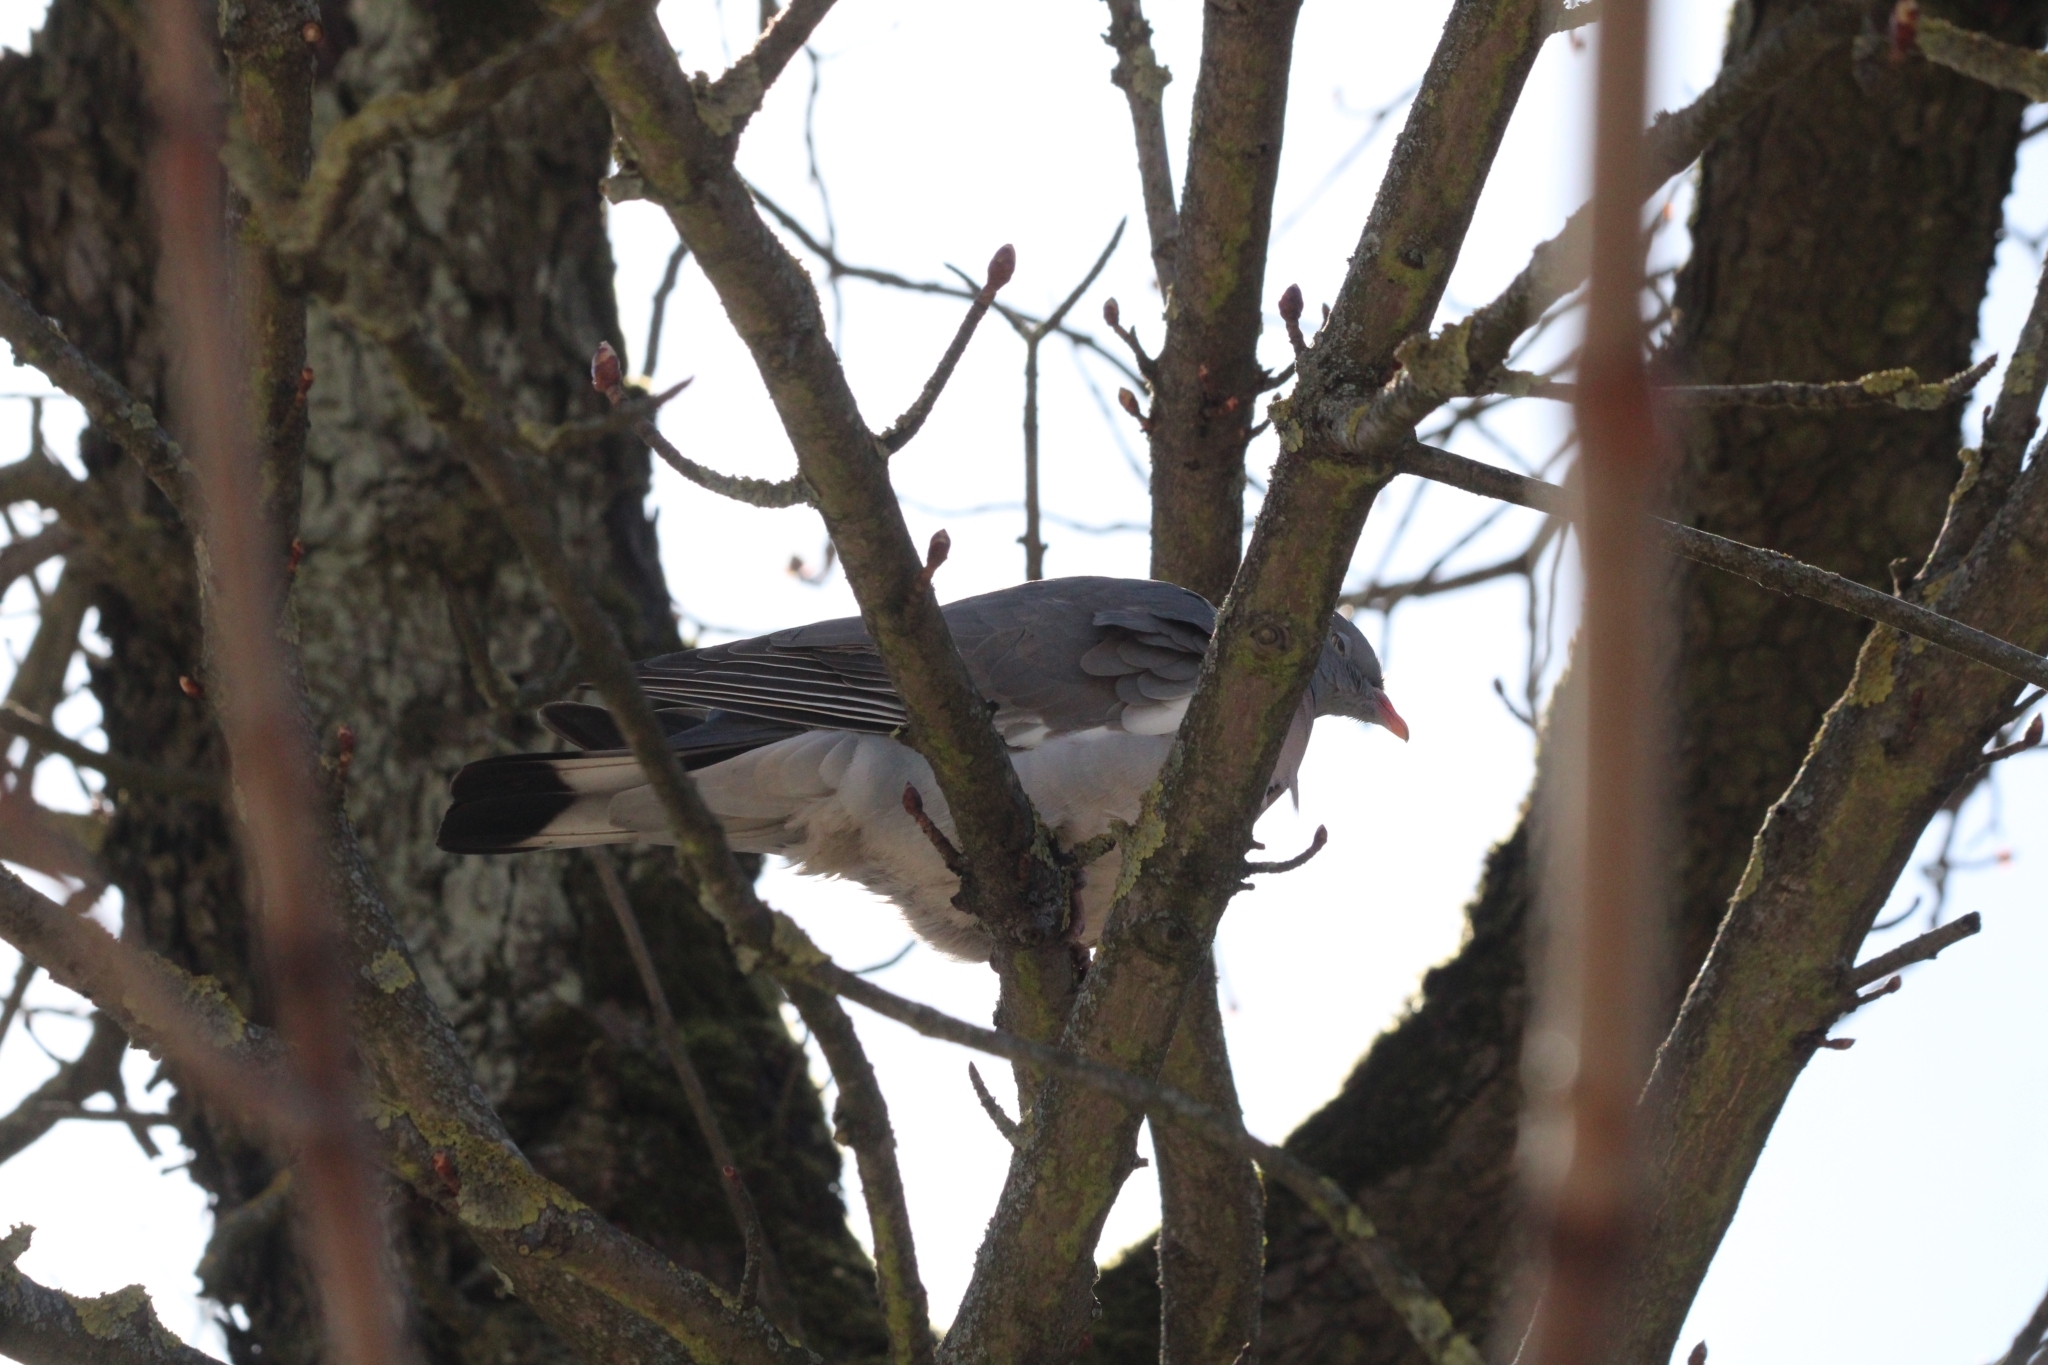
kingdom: Animalia
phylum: Chordata
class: Aves
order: Columbiformes
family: Columbidae
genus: Columba
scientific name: Columba palumbus
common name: Common wood pigeon
